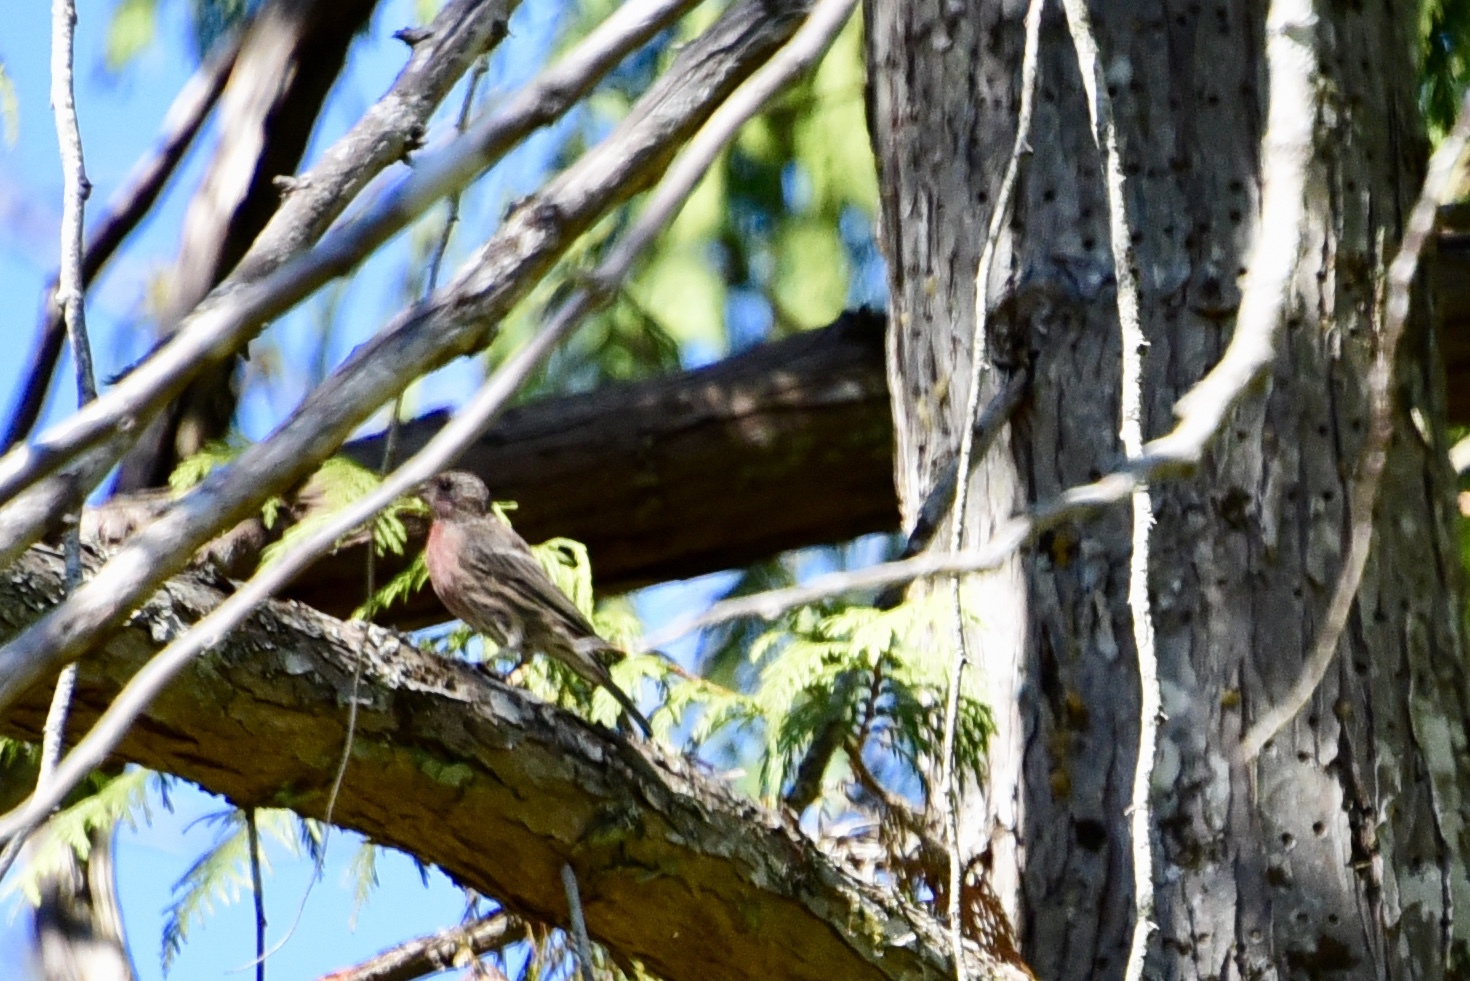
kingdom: Animalia
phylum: Chordata
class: Aves
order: Passeriformes
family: Fringillidae
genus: Haemorhous
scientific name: Haemorhous mexicanus
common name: House finch
